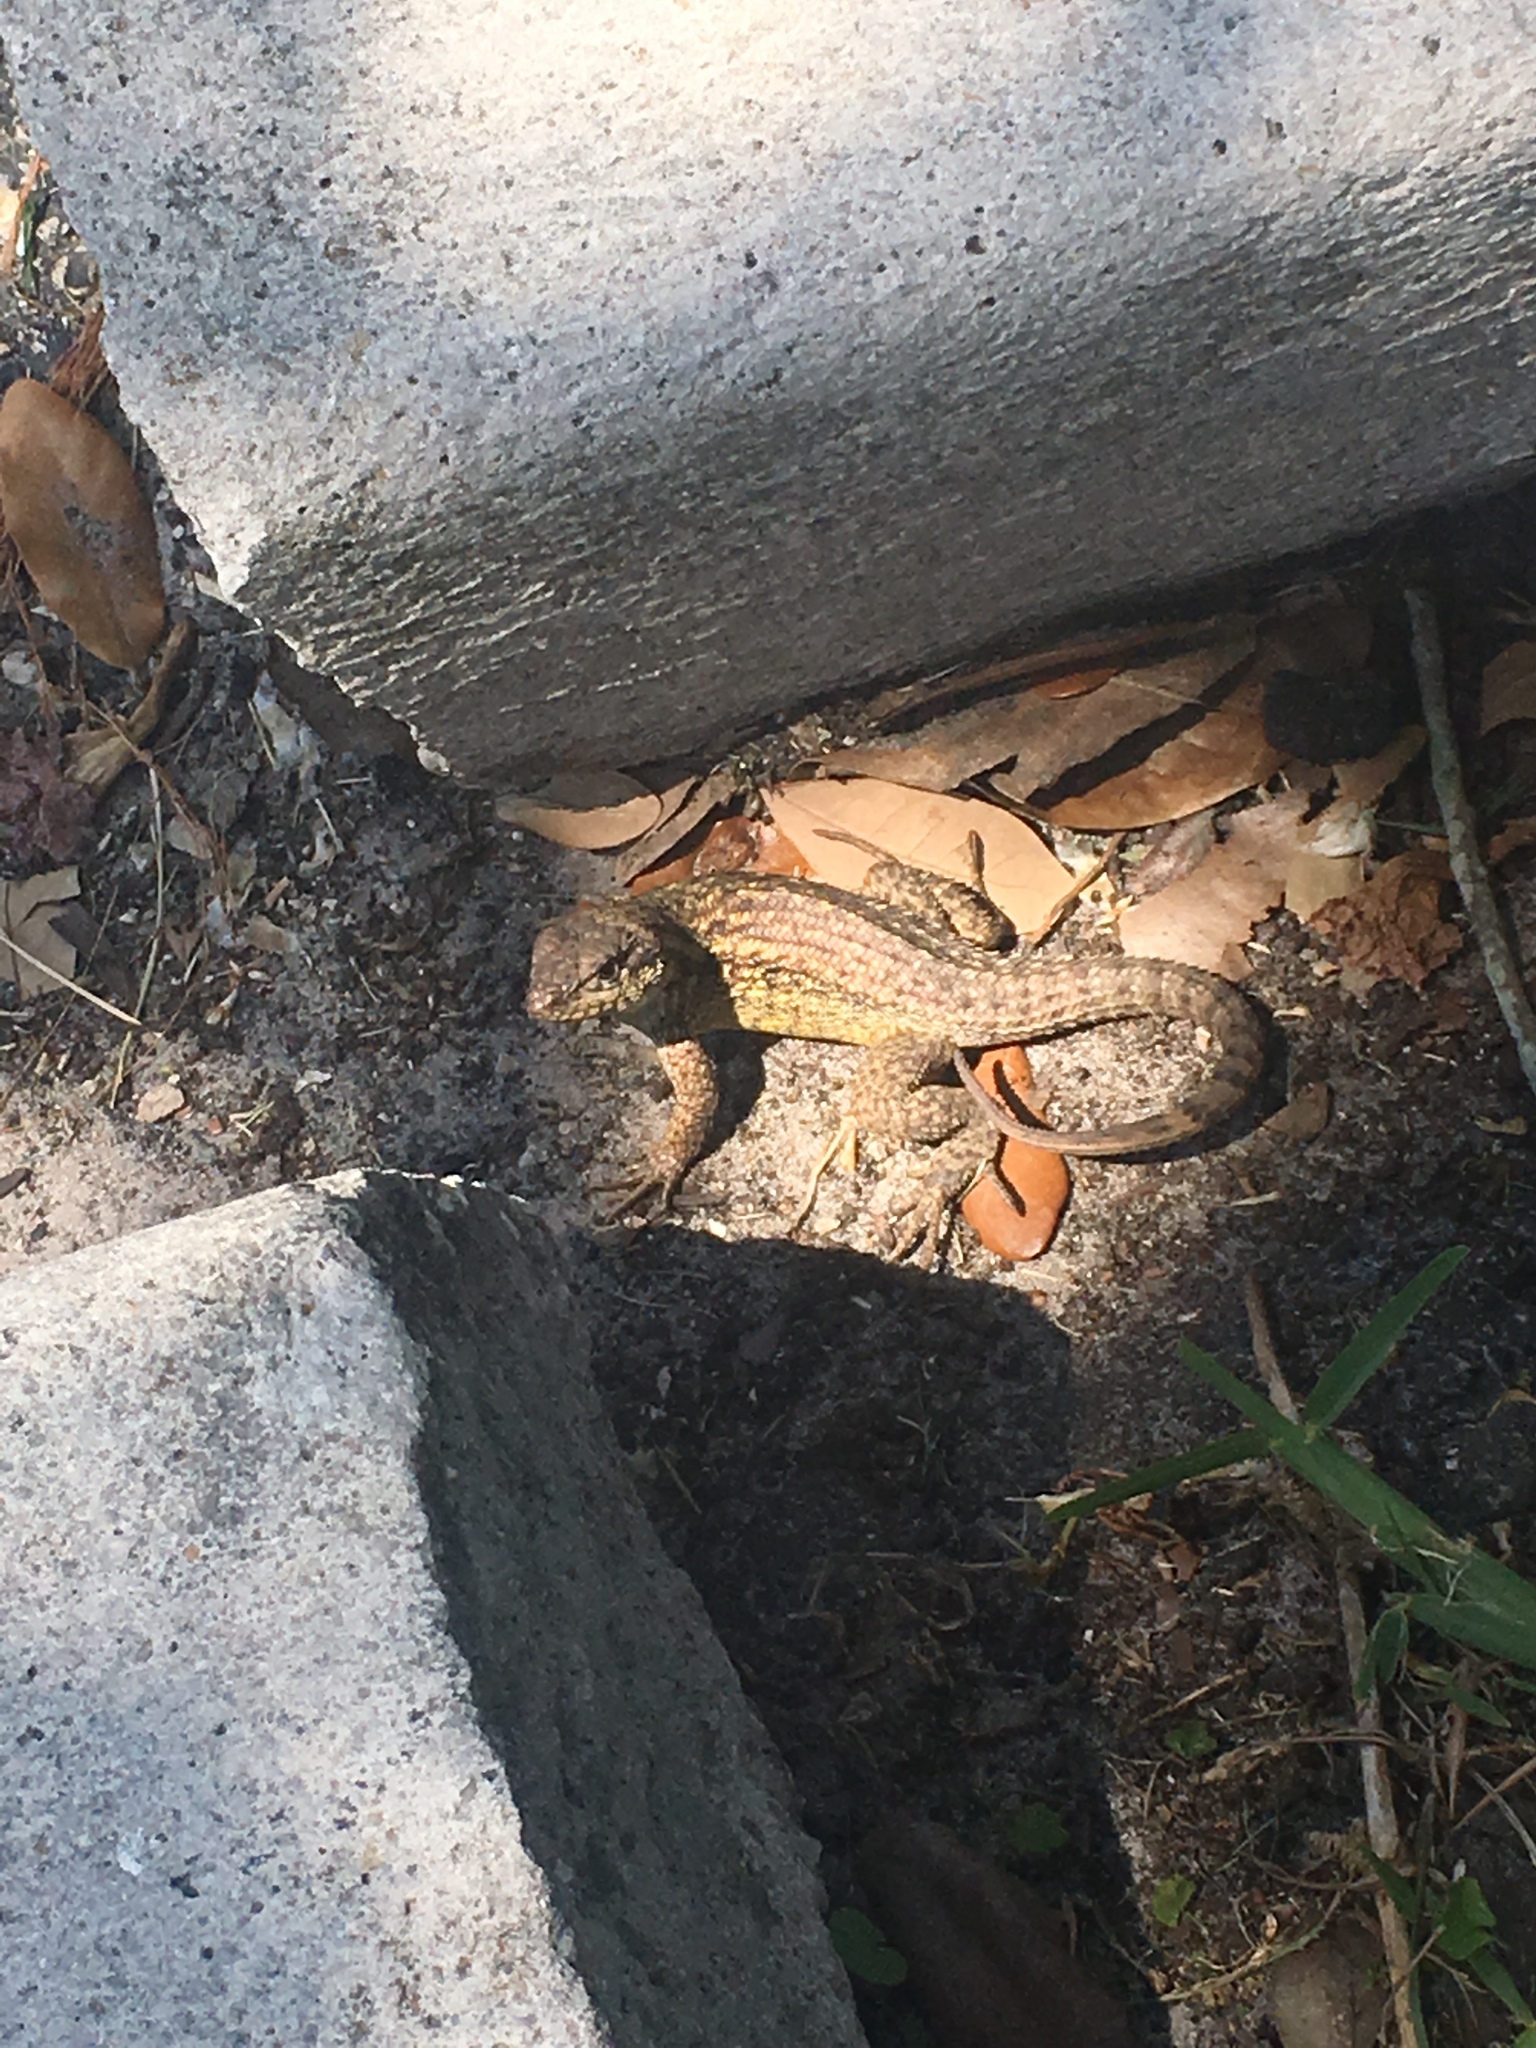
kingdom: Animalia
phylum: Chordata
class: Squamata
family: Leiocephalidae
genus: Leiocephalus
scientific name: Leiocephalus carinatus
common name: Northern curly-tailed lizard
